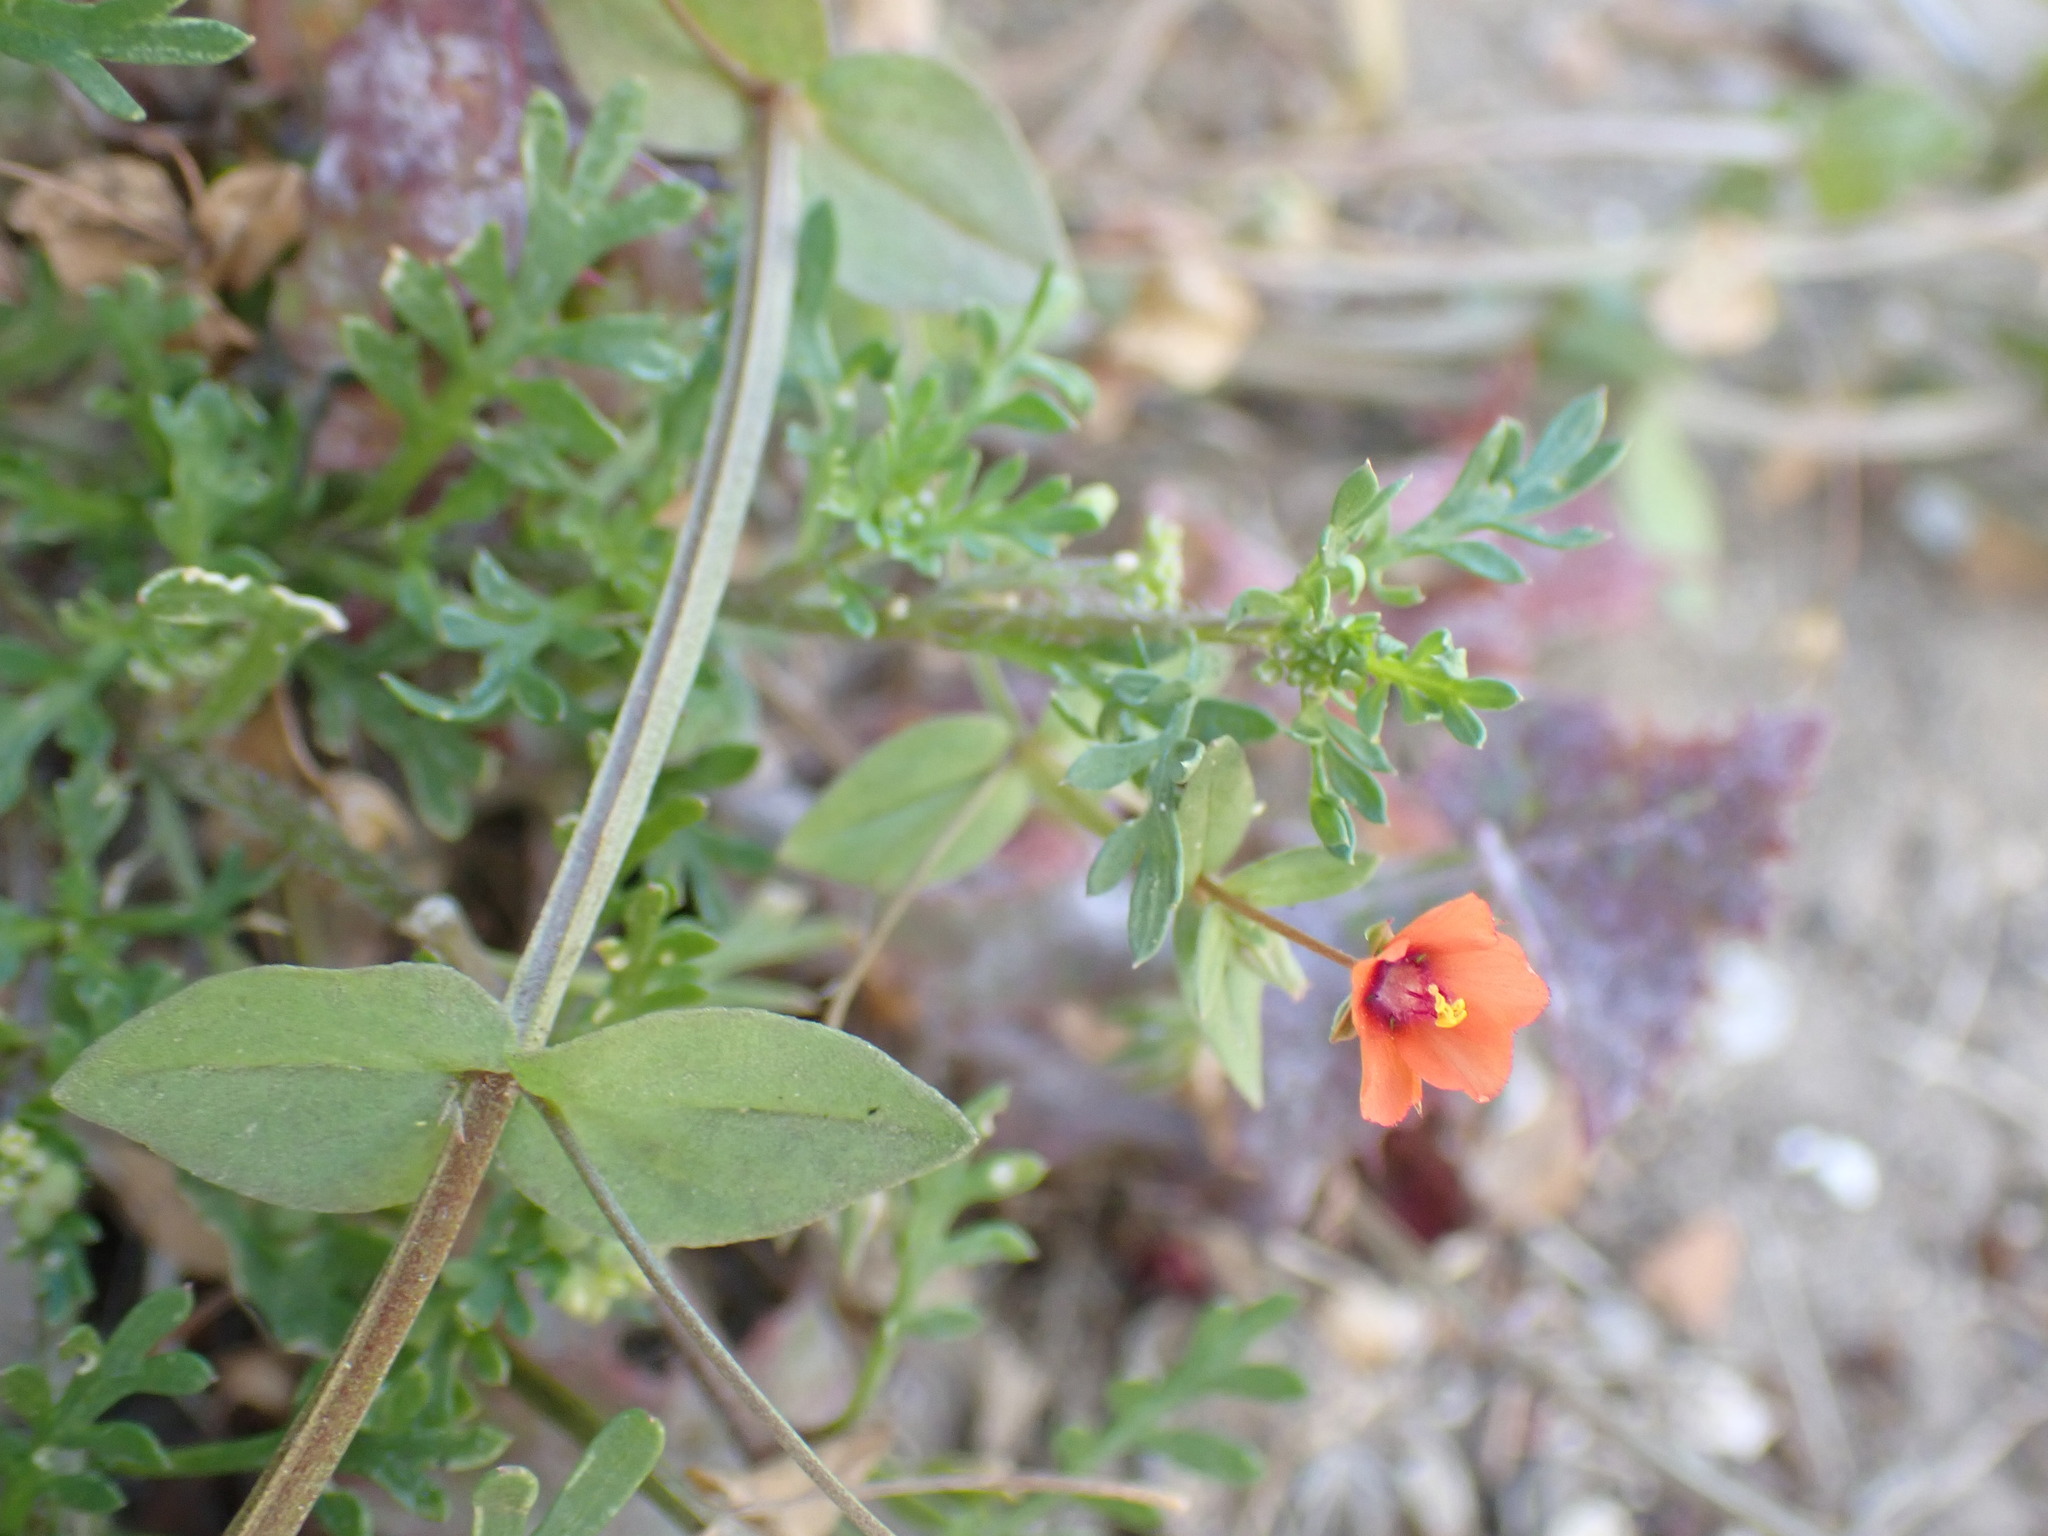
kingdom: Plantae
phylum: Tracheophyta
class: Magnoliopsida
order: Ericales
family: Primulaceae
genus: Lysimachia
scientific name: Lysimachia arvensis
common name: Scarlet pimpernel
